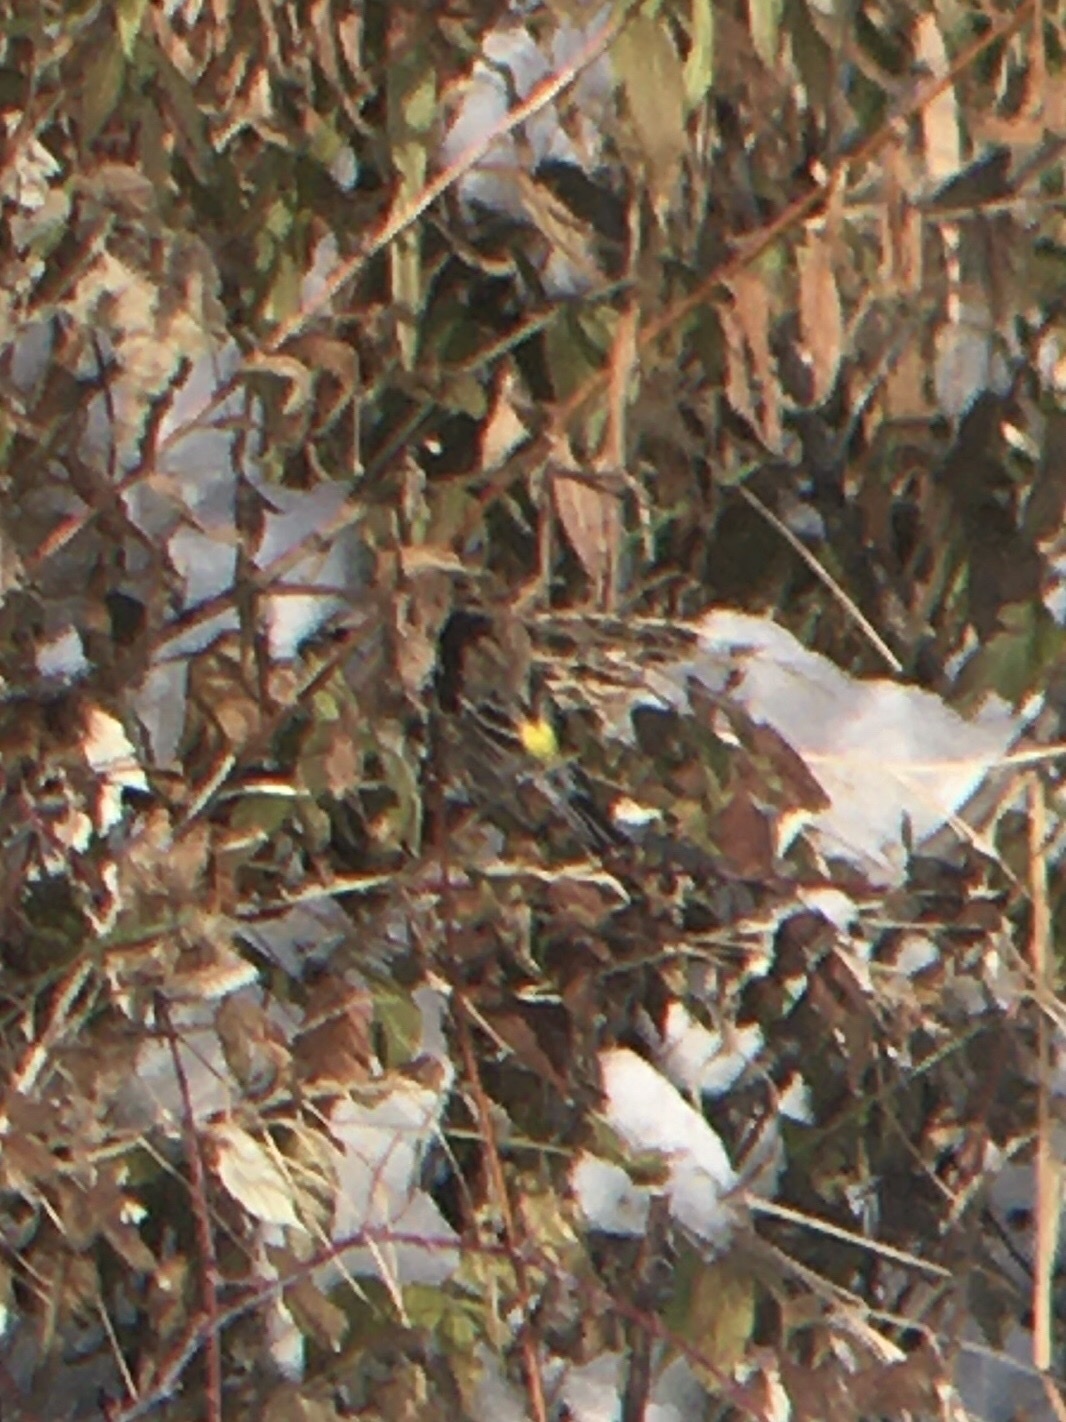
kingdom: Animalia
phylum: Chordata
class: Aves
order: Passeriformes
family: Parulidae
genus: Setophaga
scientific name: Setophaga coronata
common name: Myrtle warbler
